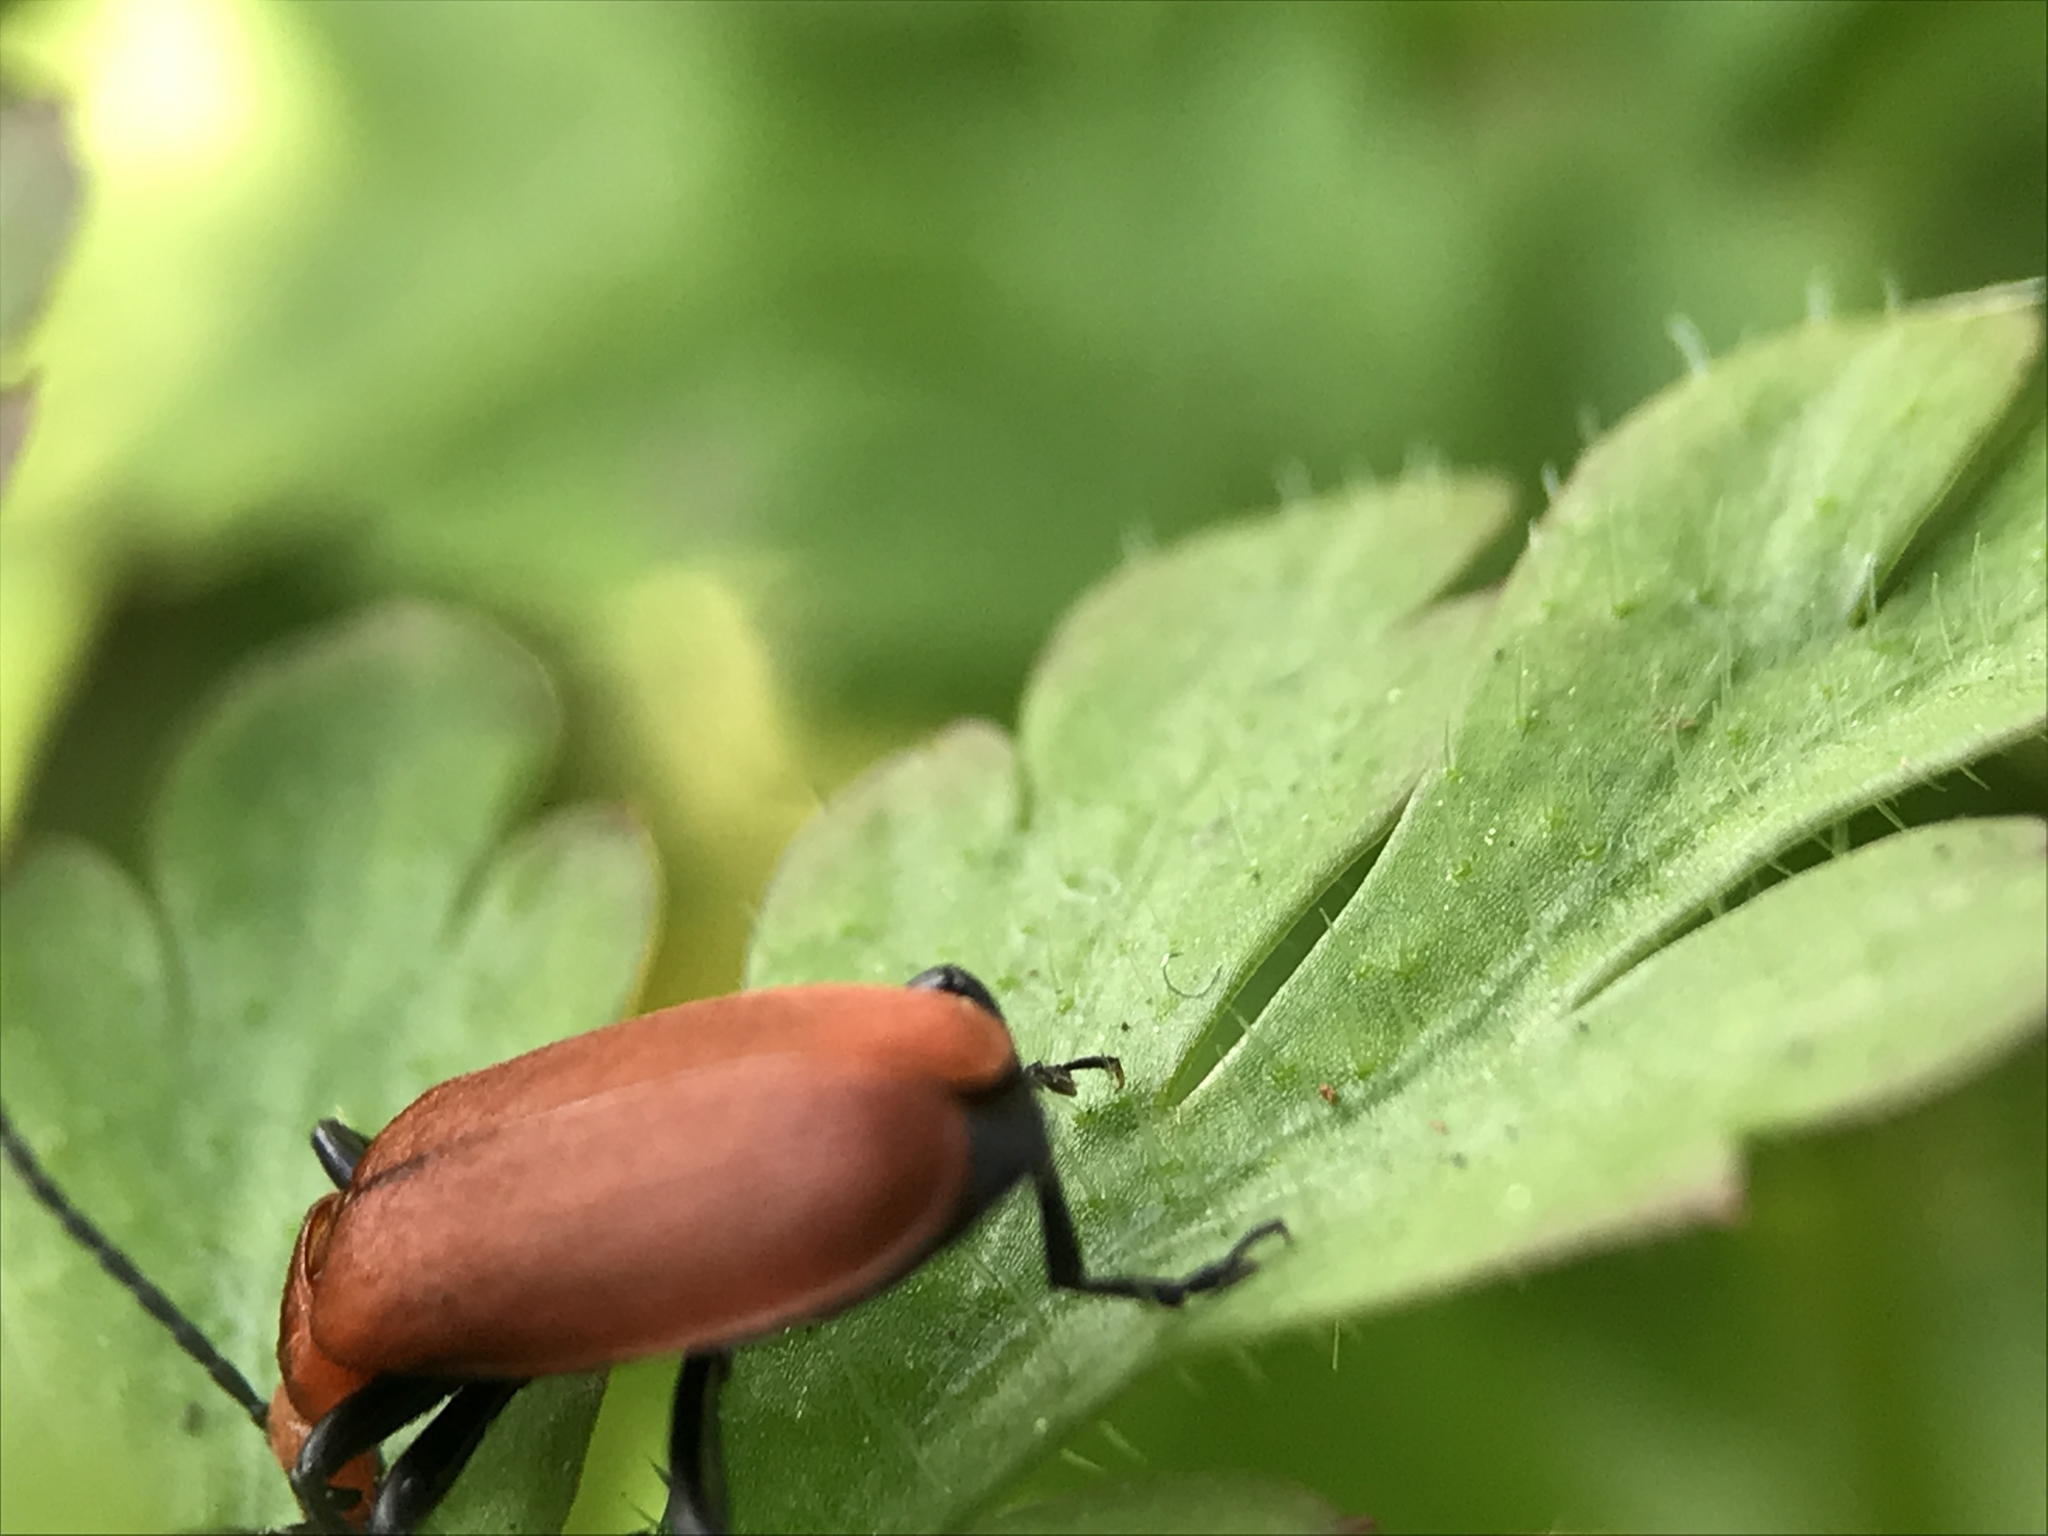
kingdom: Animalia
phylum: Arthropoda
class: Insecta
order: Coleoptera
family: Pyrochroidae
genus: Pyrochroa
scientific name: Pyrochroa serraticornis
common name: Red-headed cardinal beetle
